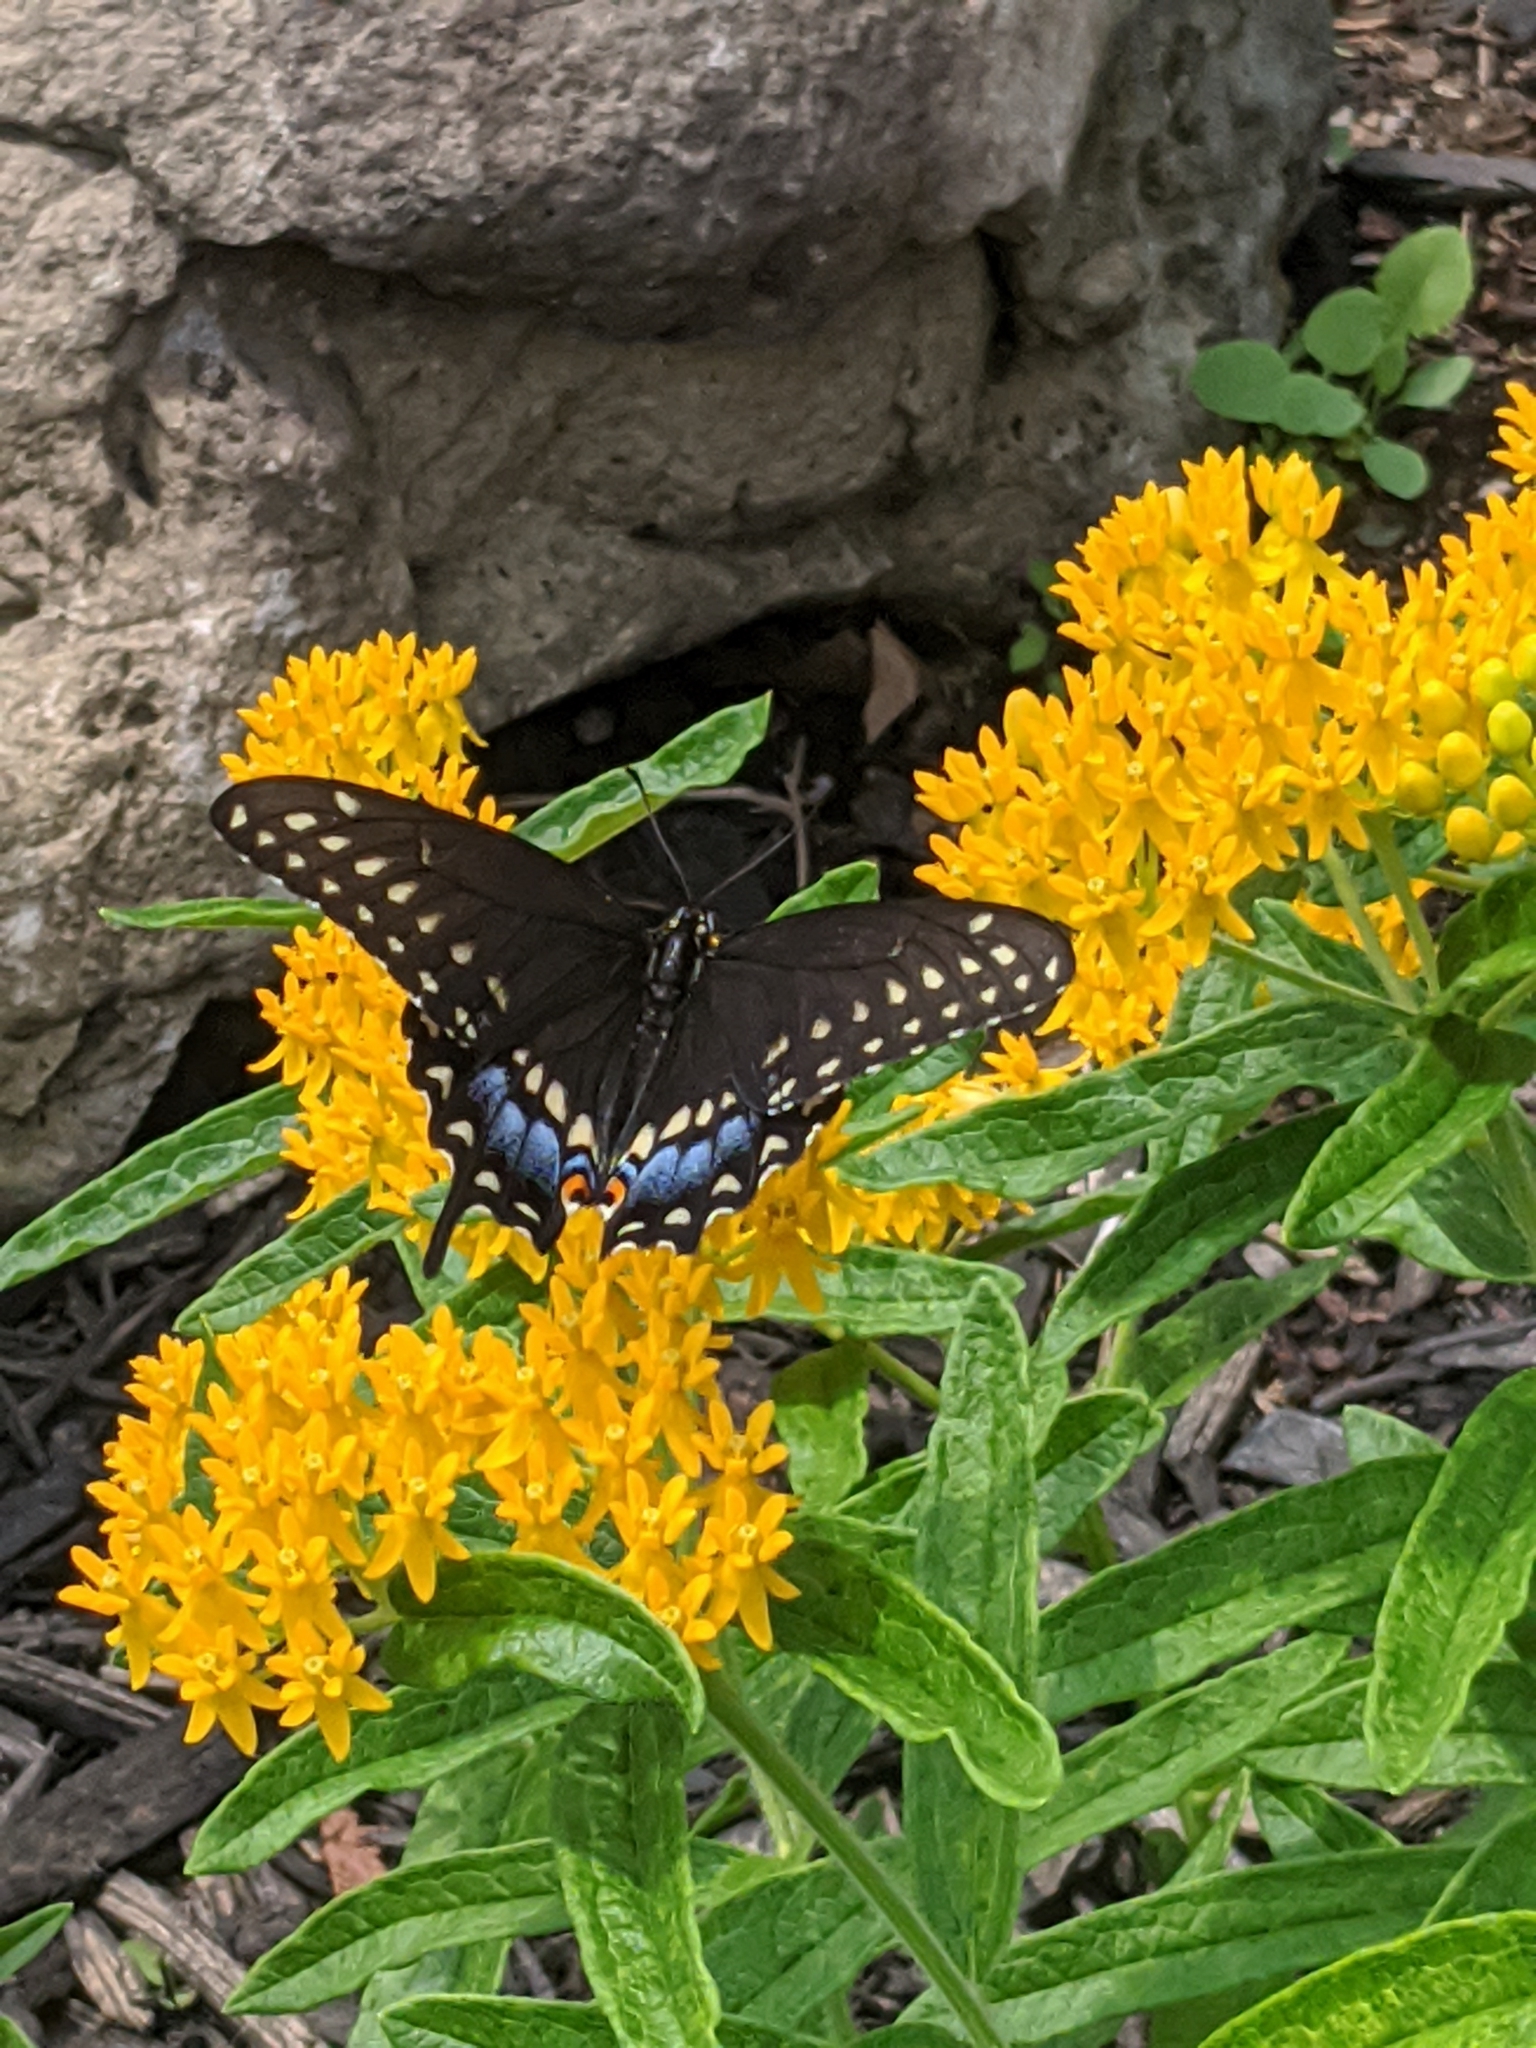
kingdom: Animalia
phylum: Arthropoda
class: Insecta
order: Lepidoptera
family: Papilionidae
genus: Papilio
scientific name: Papilio polyxenes
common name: Black swallowtail
